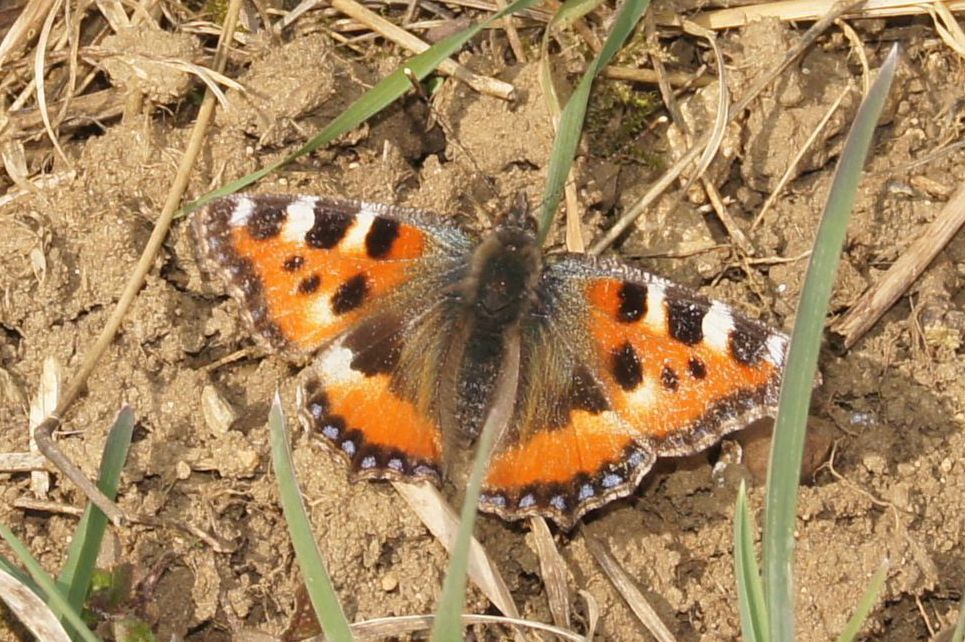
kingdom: Animalia
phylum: Arthropoda
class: Insecta
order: Lepidoptera
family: Nymphalidae
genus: Aglais
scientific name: Aglais urticae
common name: Small tortoiseshell
